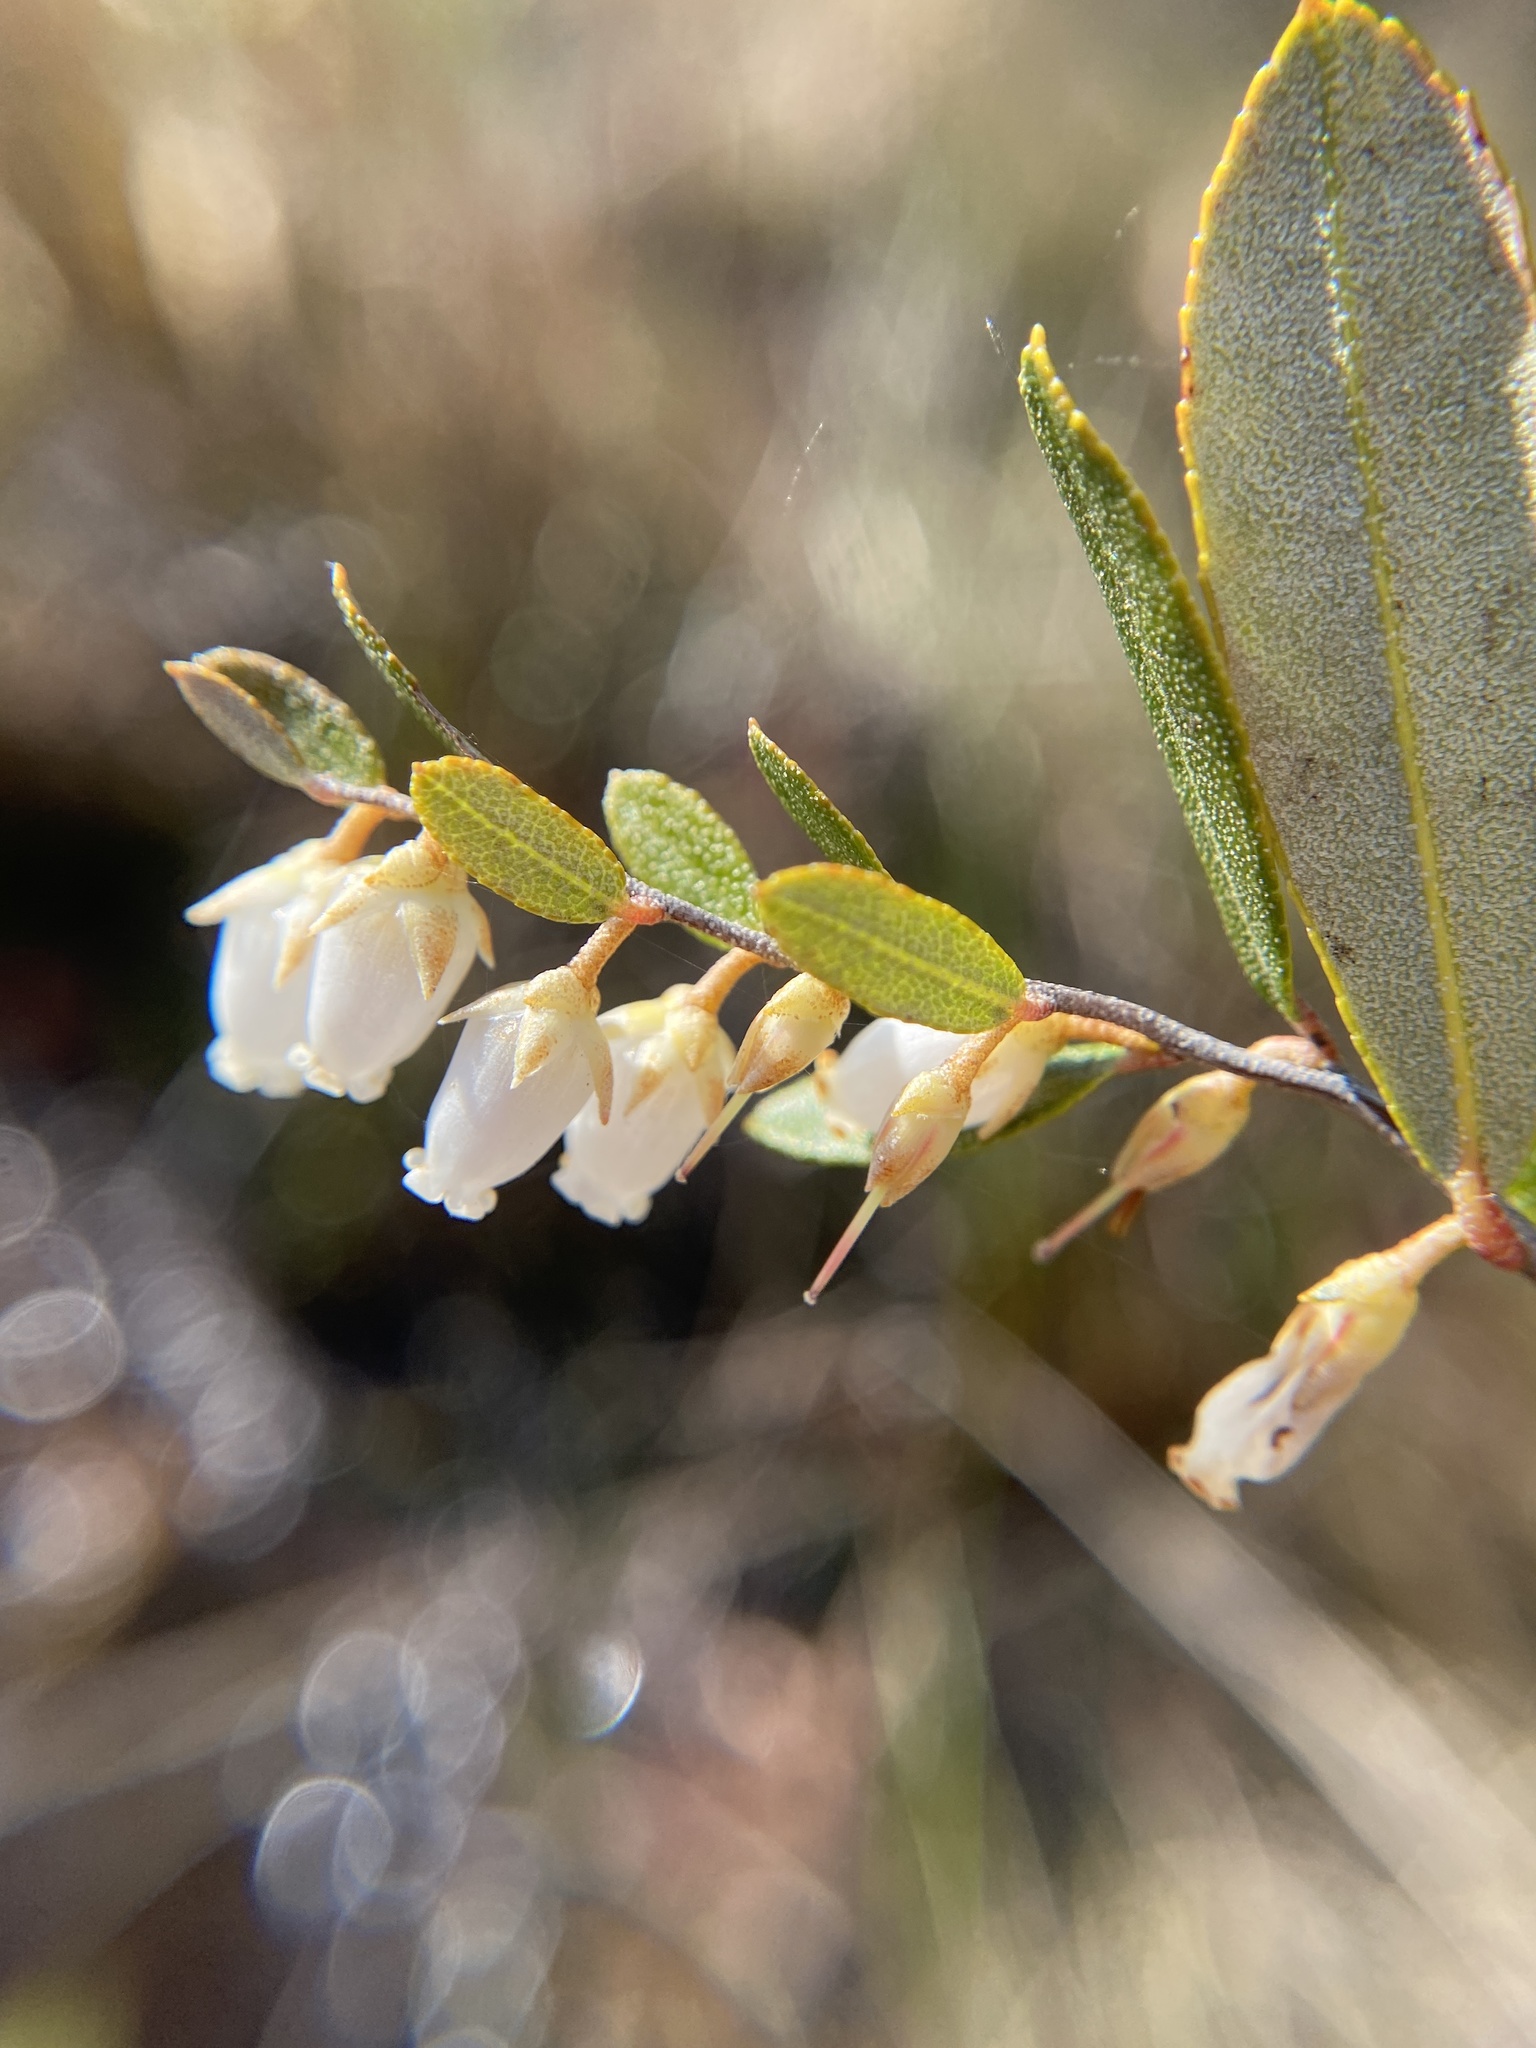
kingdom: Plantae
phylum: Tracheophyta
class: Magnoliopsida
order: Ericales
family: Ericaceae
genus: Chamaedaphne
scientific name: Chamaedaphne calyculata
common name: Leatherleaf
